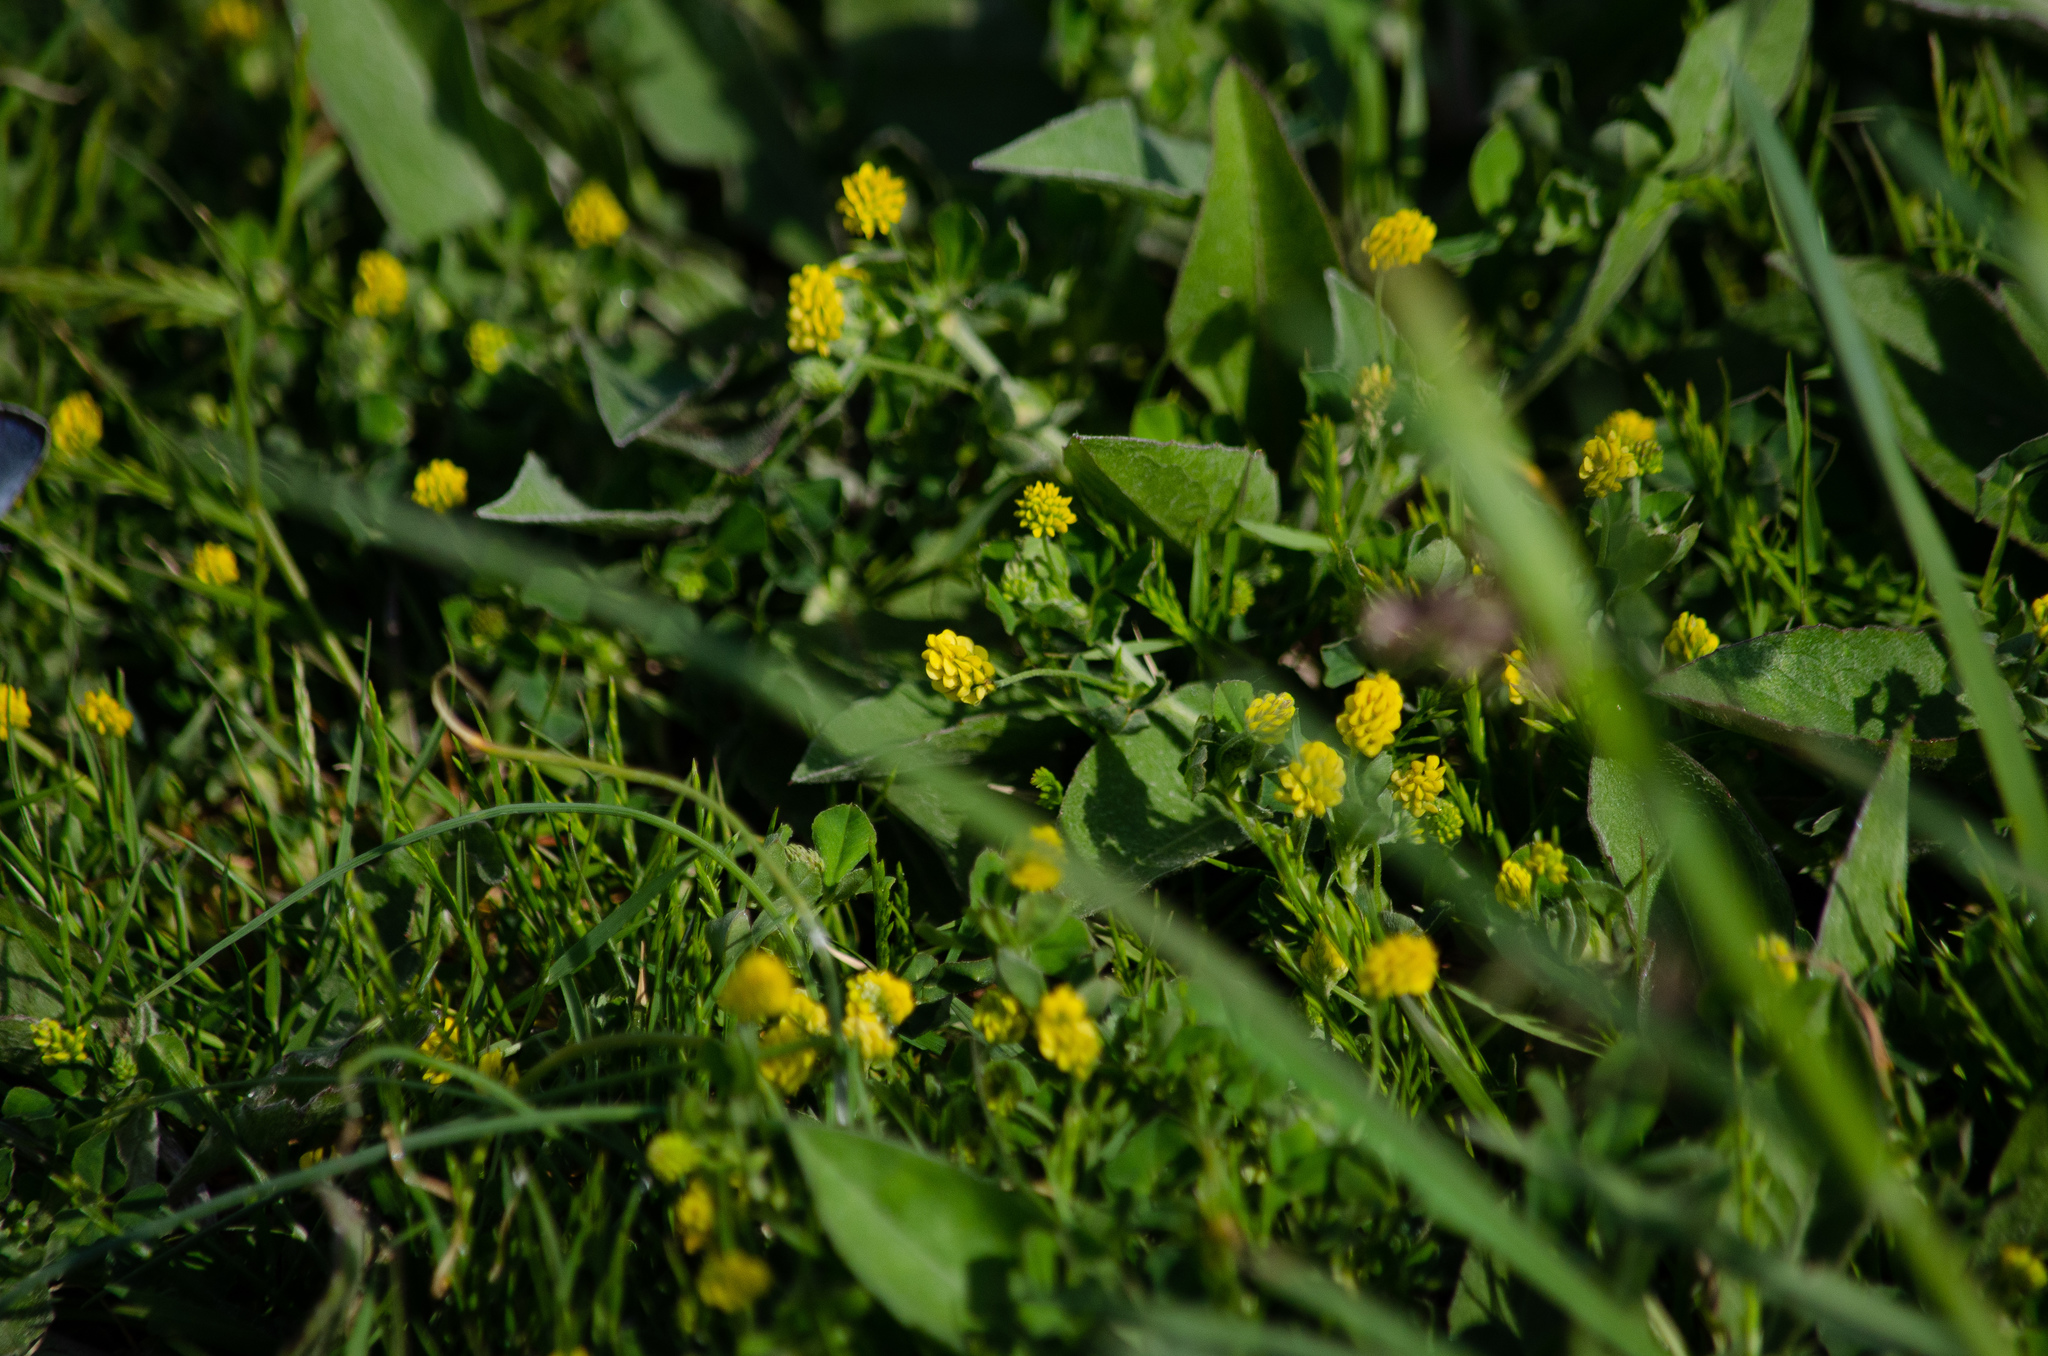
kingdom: Plantae
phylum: Tracheophyta
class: Magnoliopsida
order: Fabales
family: Fabaceae
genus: Medicago
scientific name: Medicago lupulina
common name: Black medick
